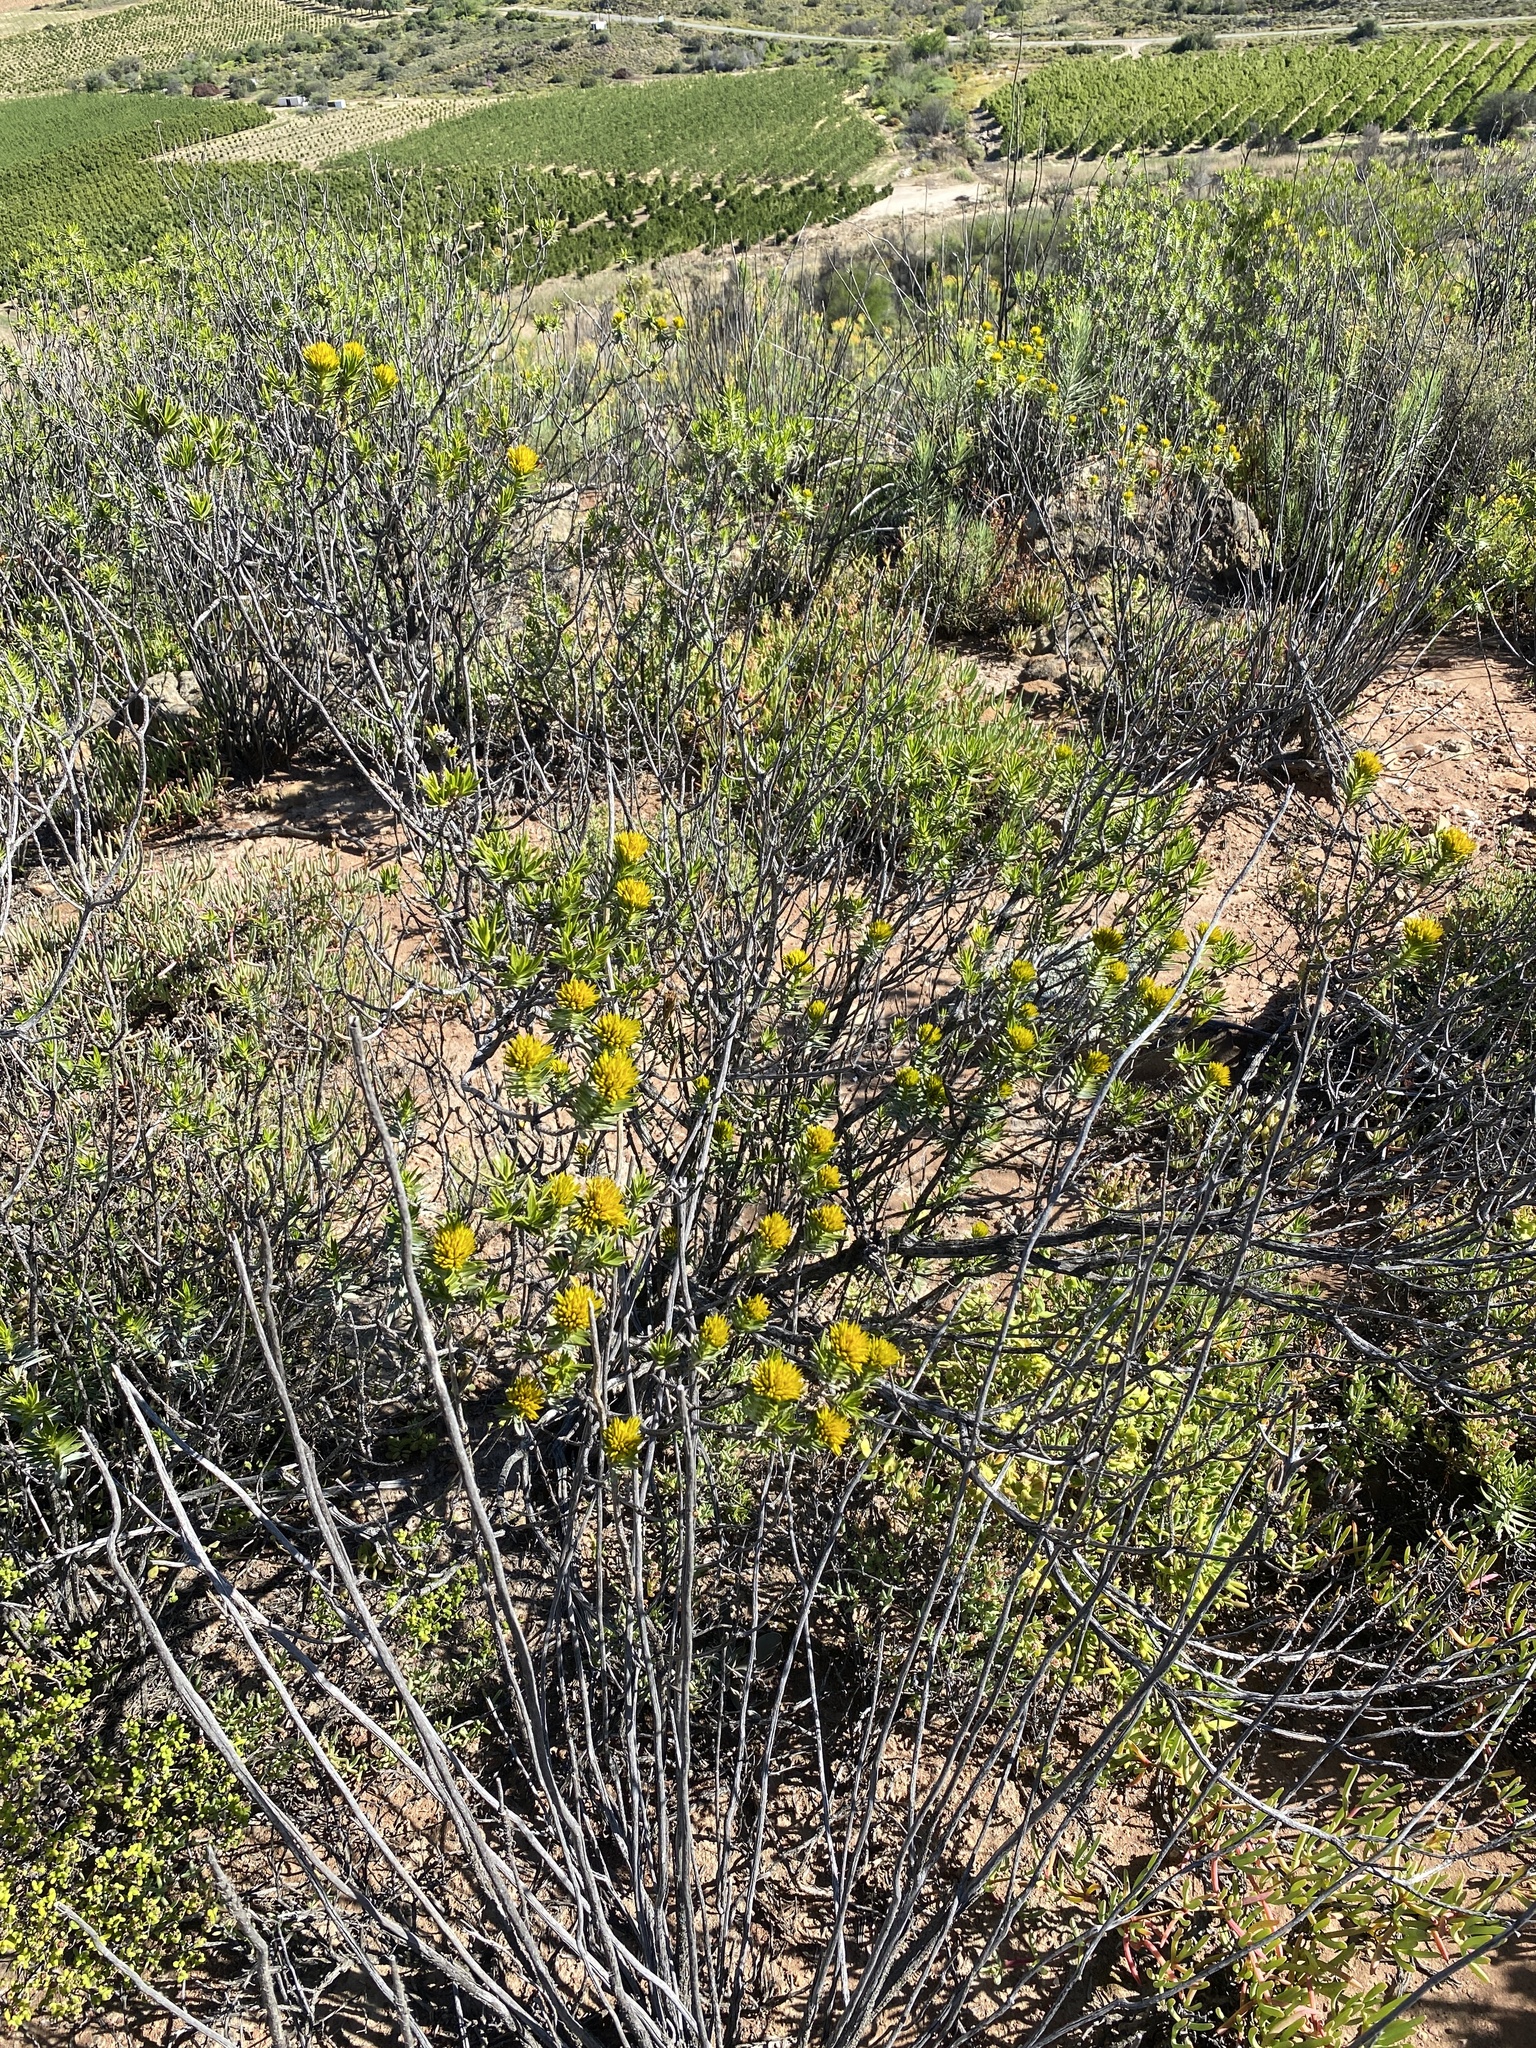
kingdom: Plantae
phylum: Tracheophyta
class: Magnoliopsida
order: Asterales
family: Asteraceae
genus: Pteronia
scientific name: Pteronia fasciculata
